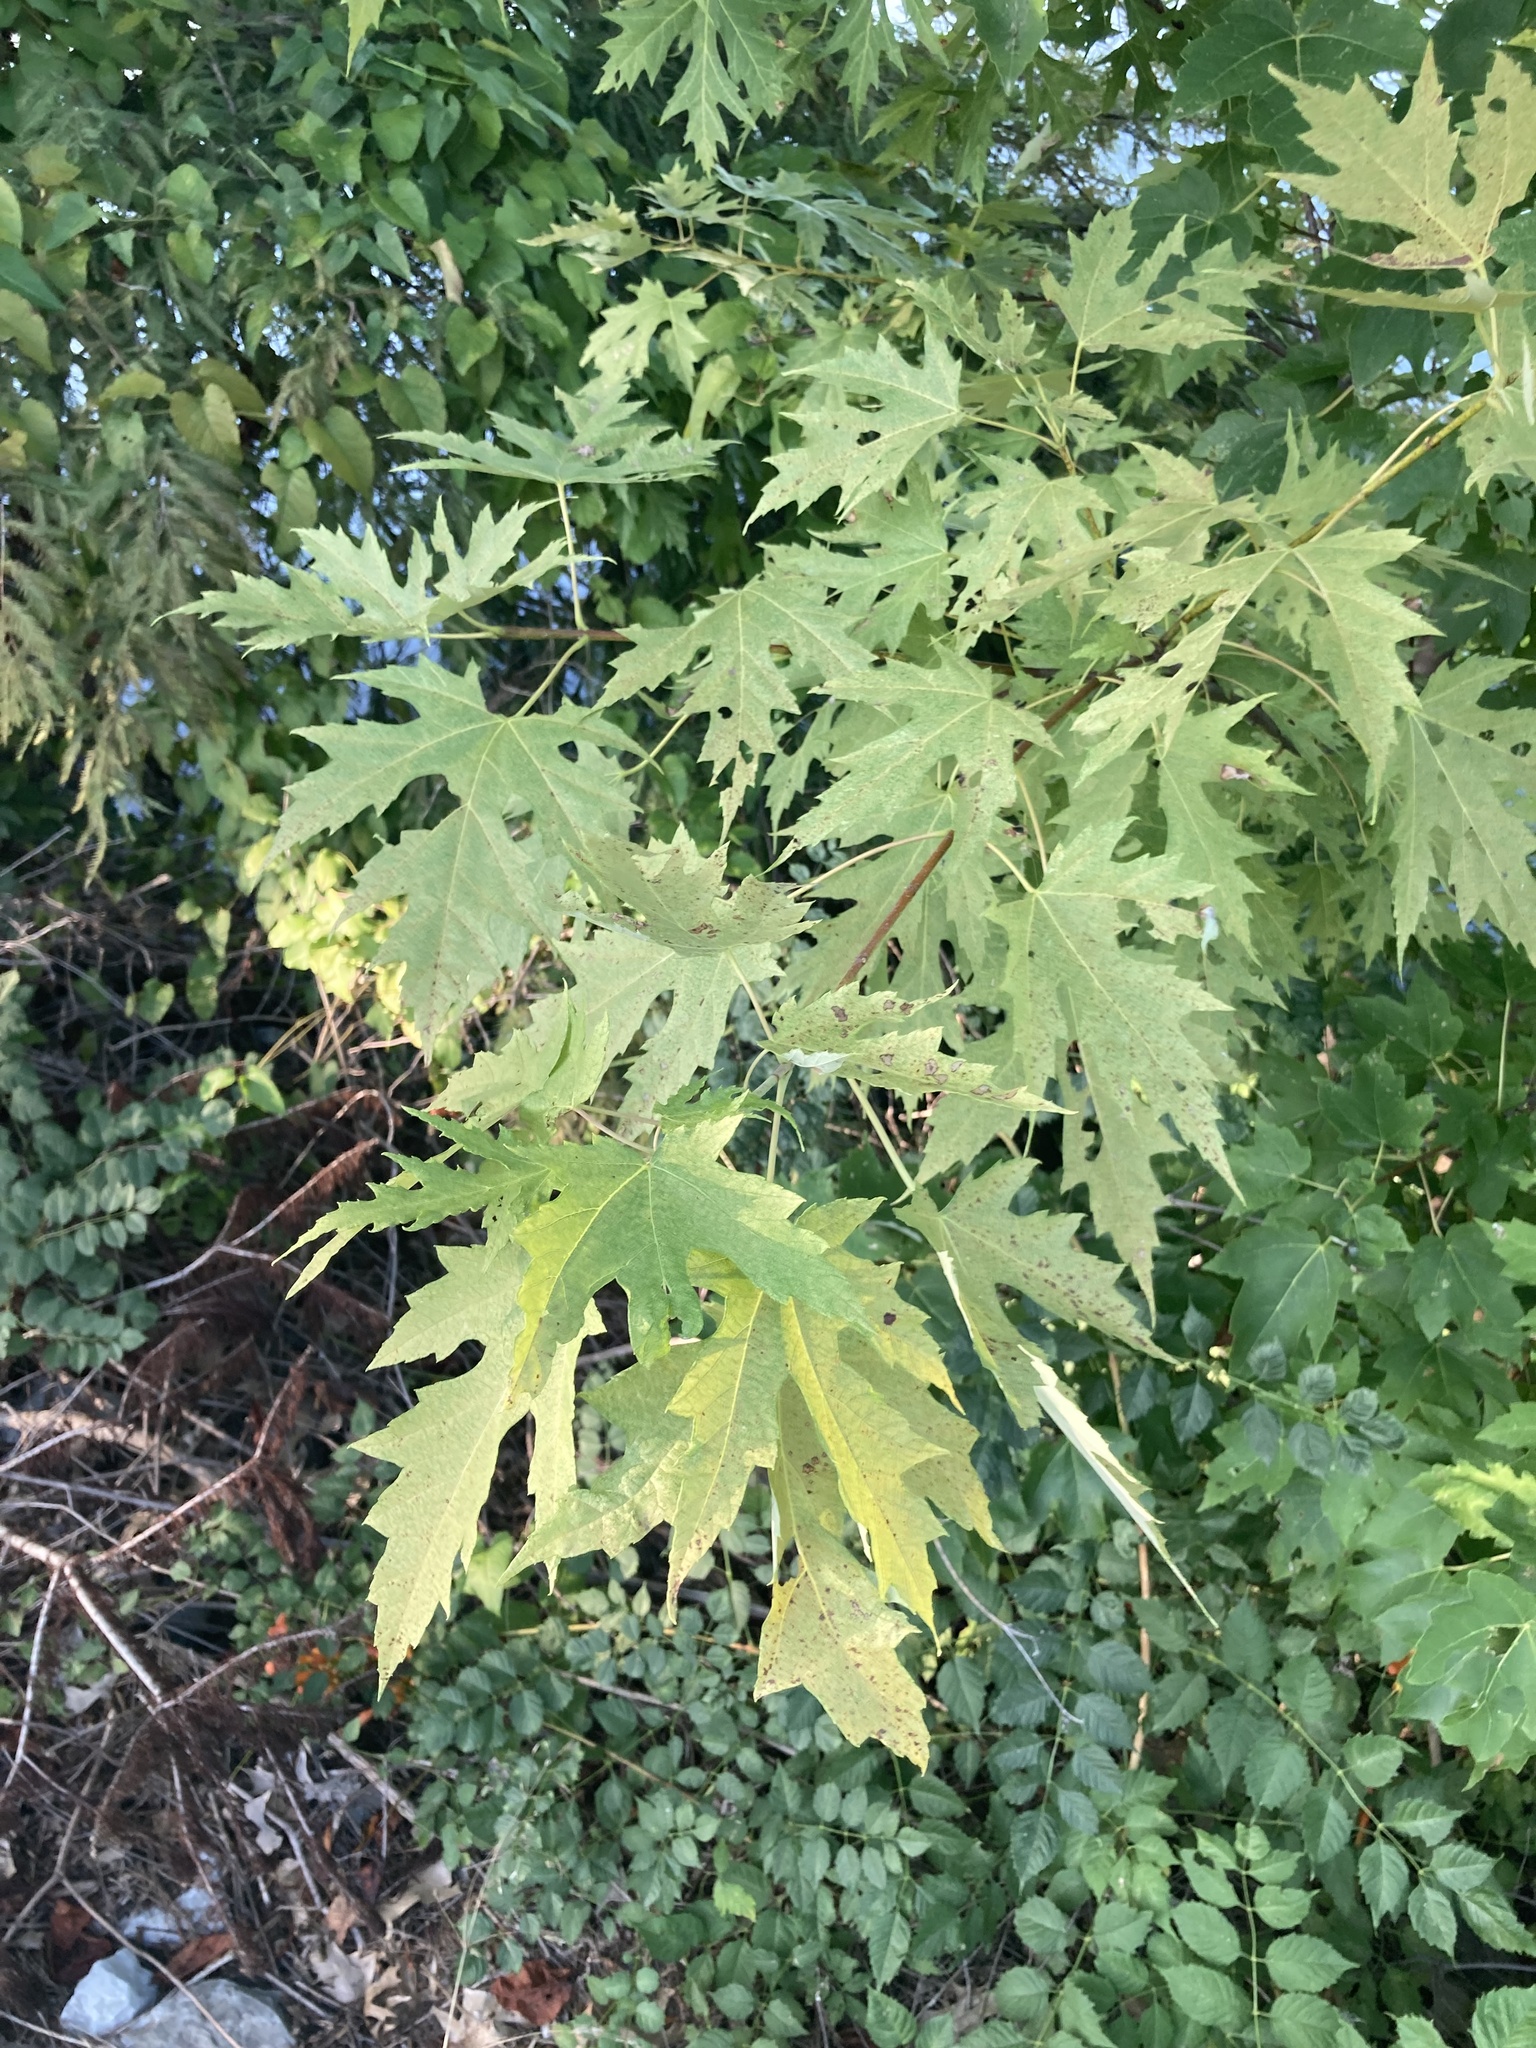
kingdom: Plantae
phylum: Tracheophyta
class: Magnoliopsida
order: Sapindales
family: Sapindaceae
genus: Acer
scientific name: Acer saccharinum
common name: Silver maple
